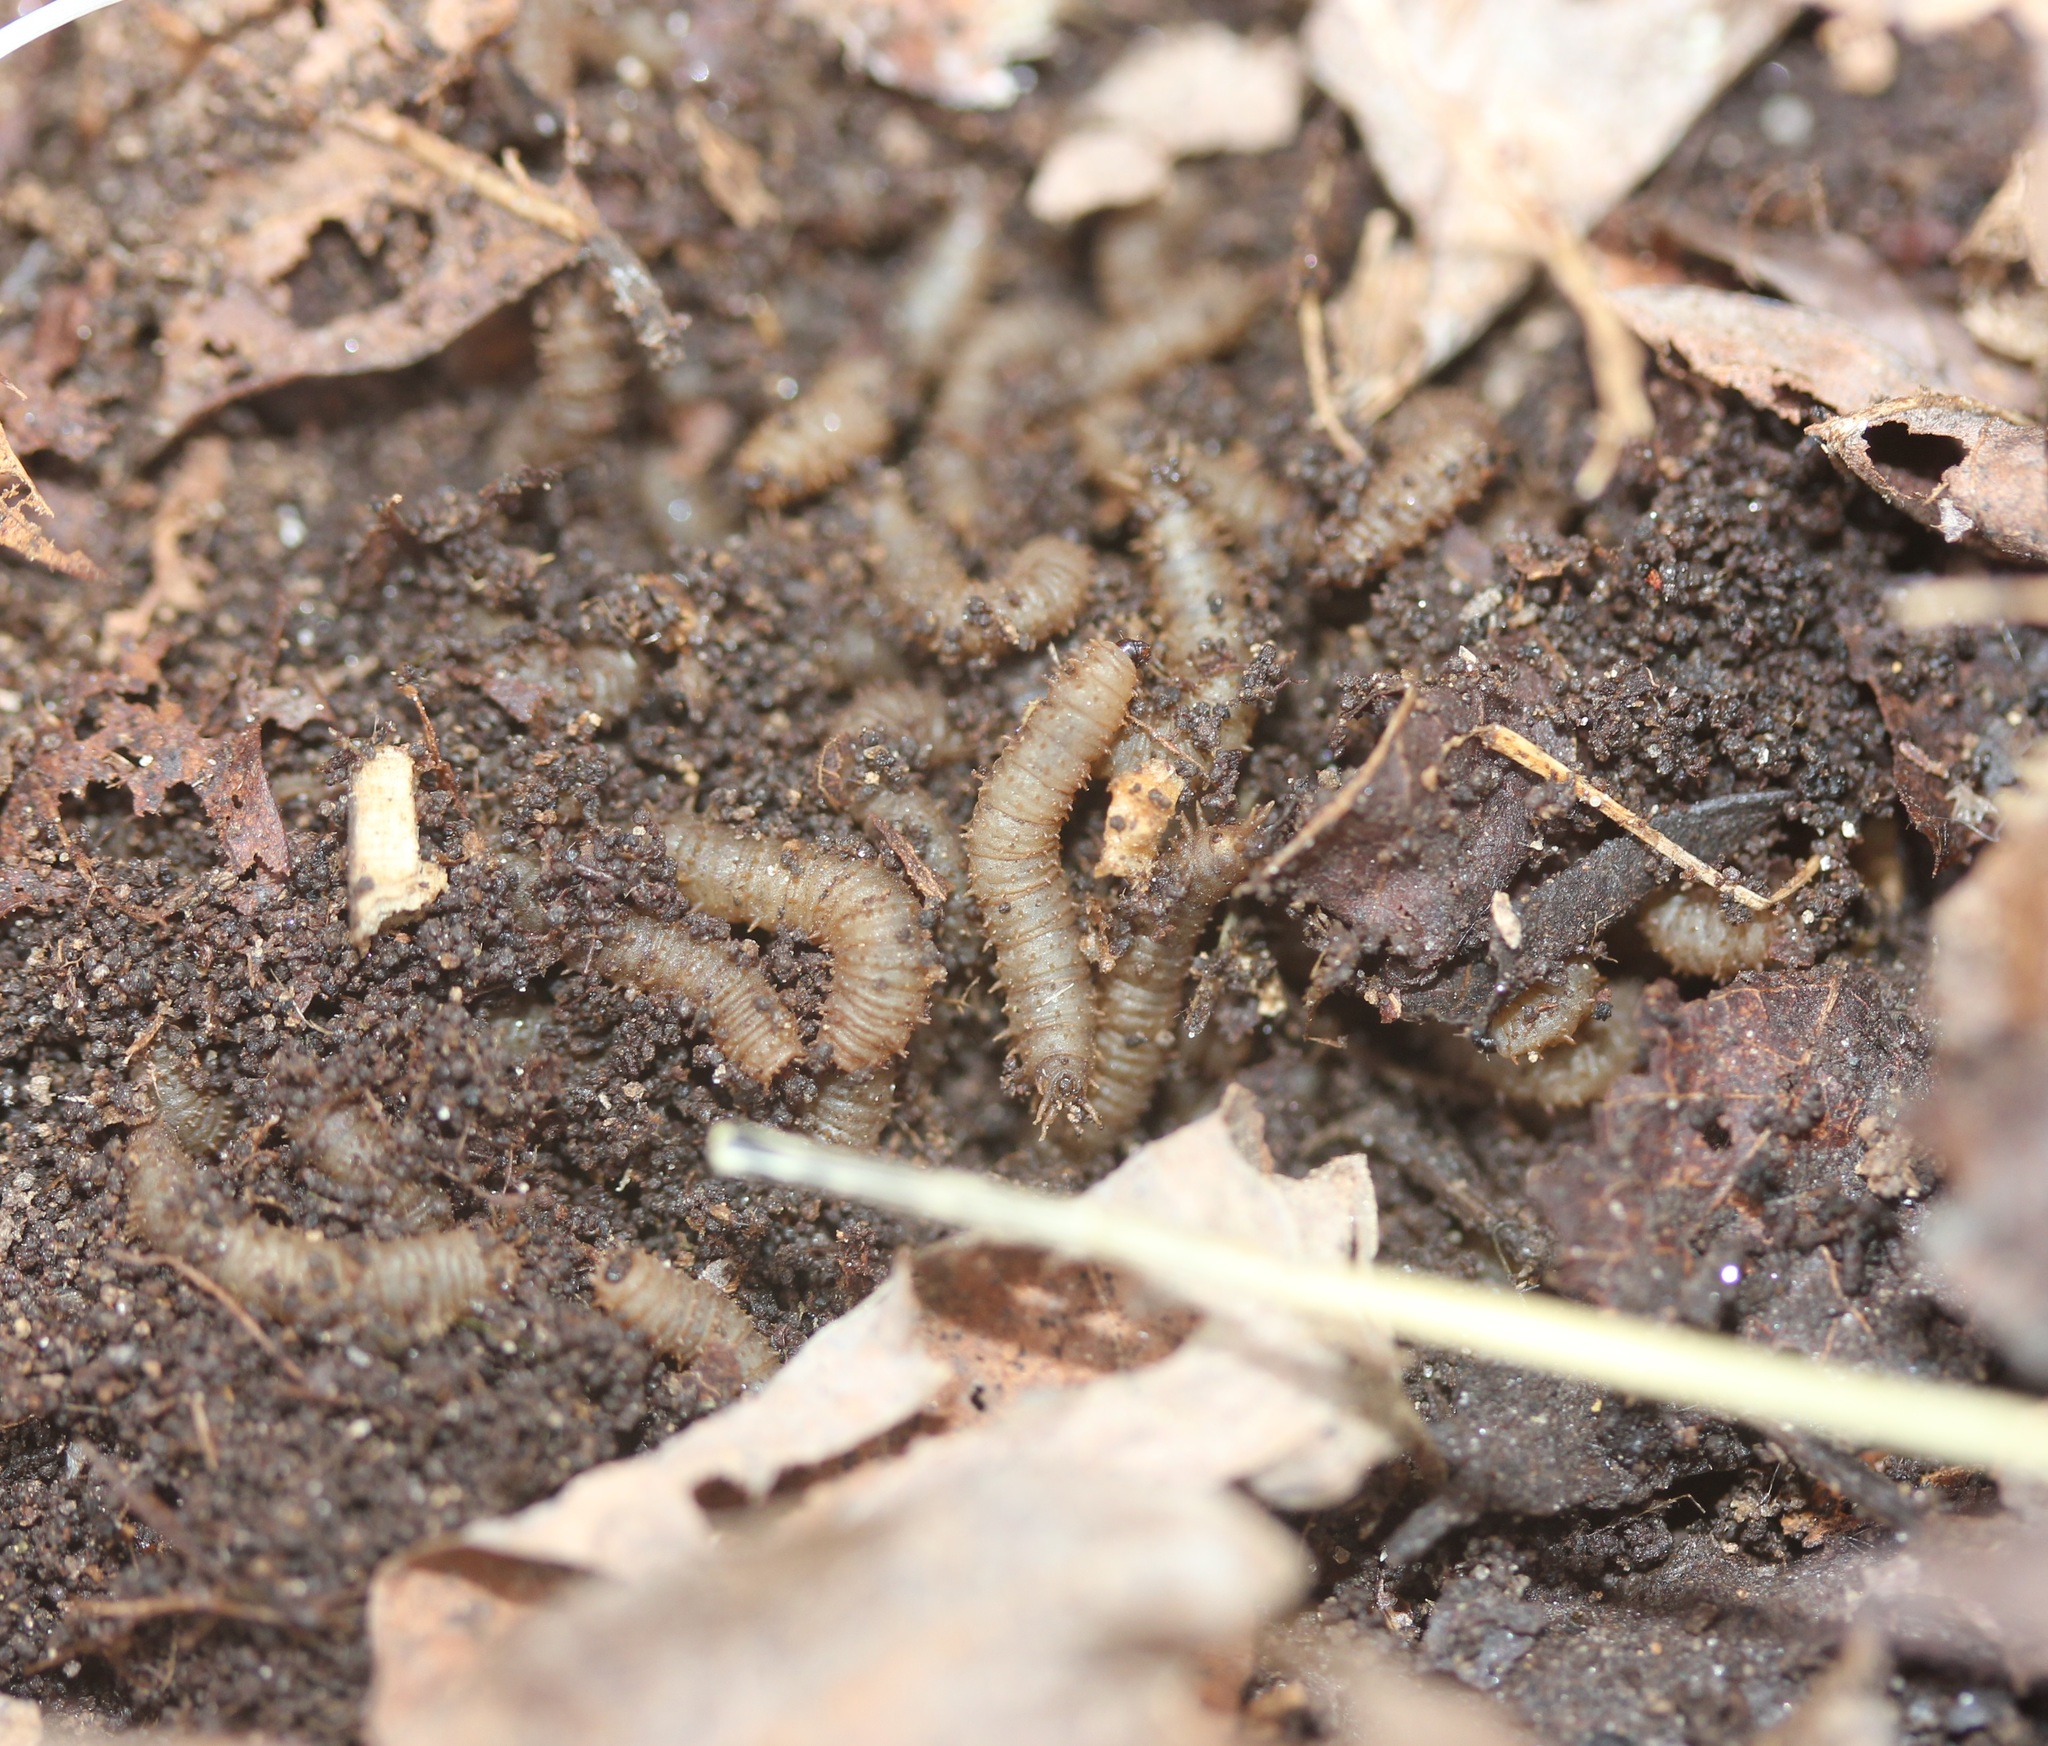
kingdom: Animalia
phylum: Arthropoda
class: Insecta
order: Diptera
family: Bibionidae
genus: Bibio
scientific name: Bibio
